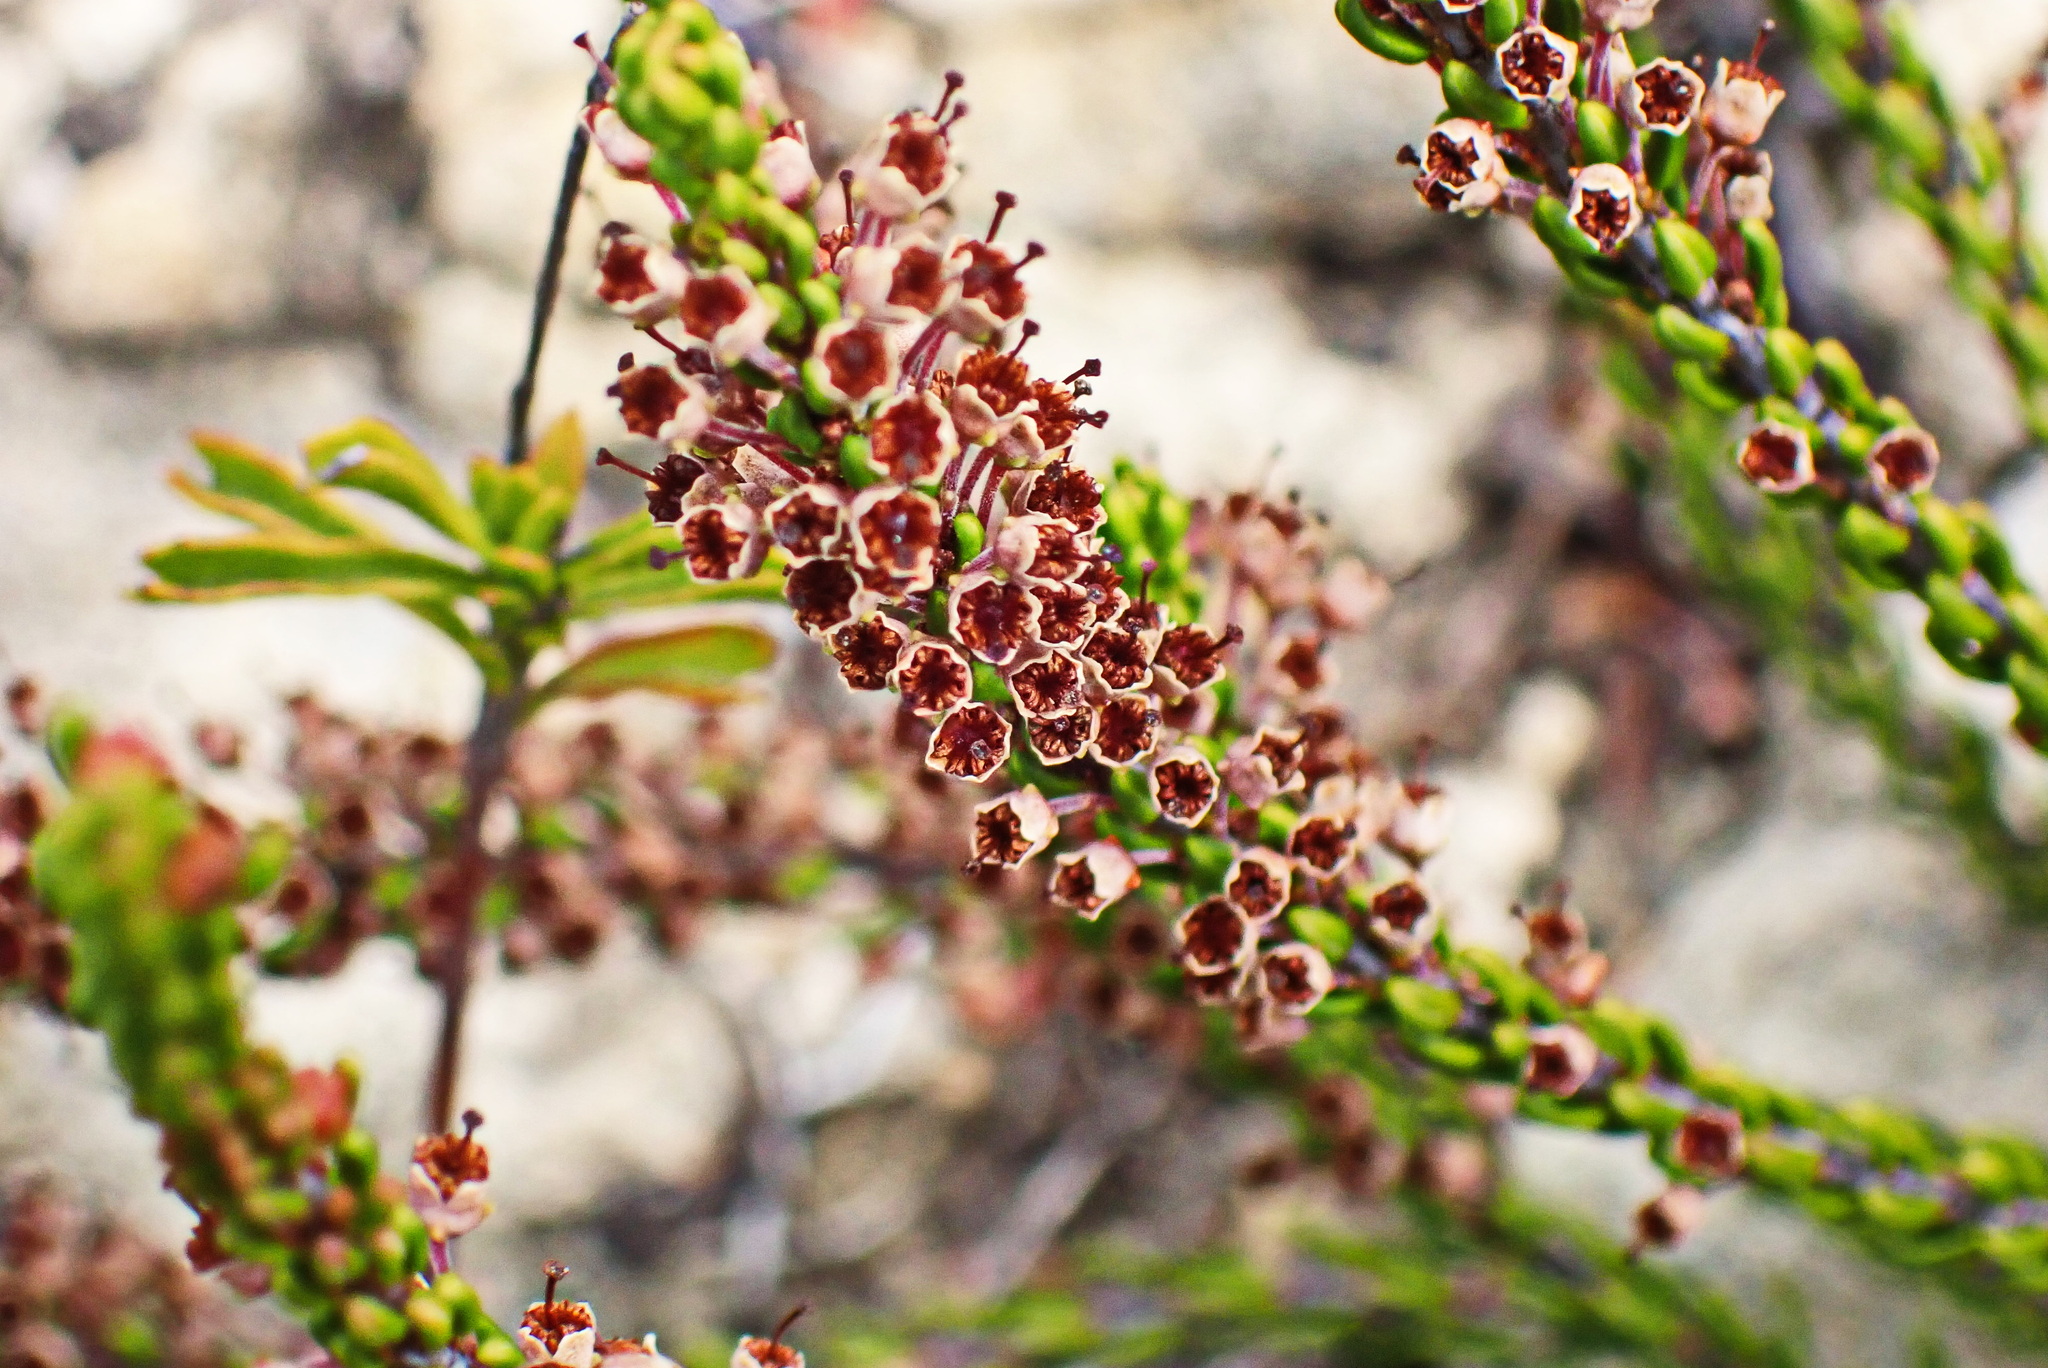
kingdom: Plantae
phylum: Tracheophyta
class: Magnoliopsida
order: Ericales
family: Ericaceae
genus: Erica
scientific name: Erica curtophylla
